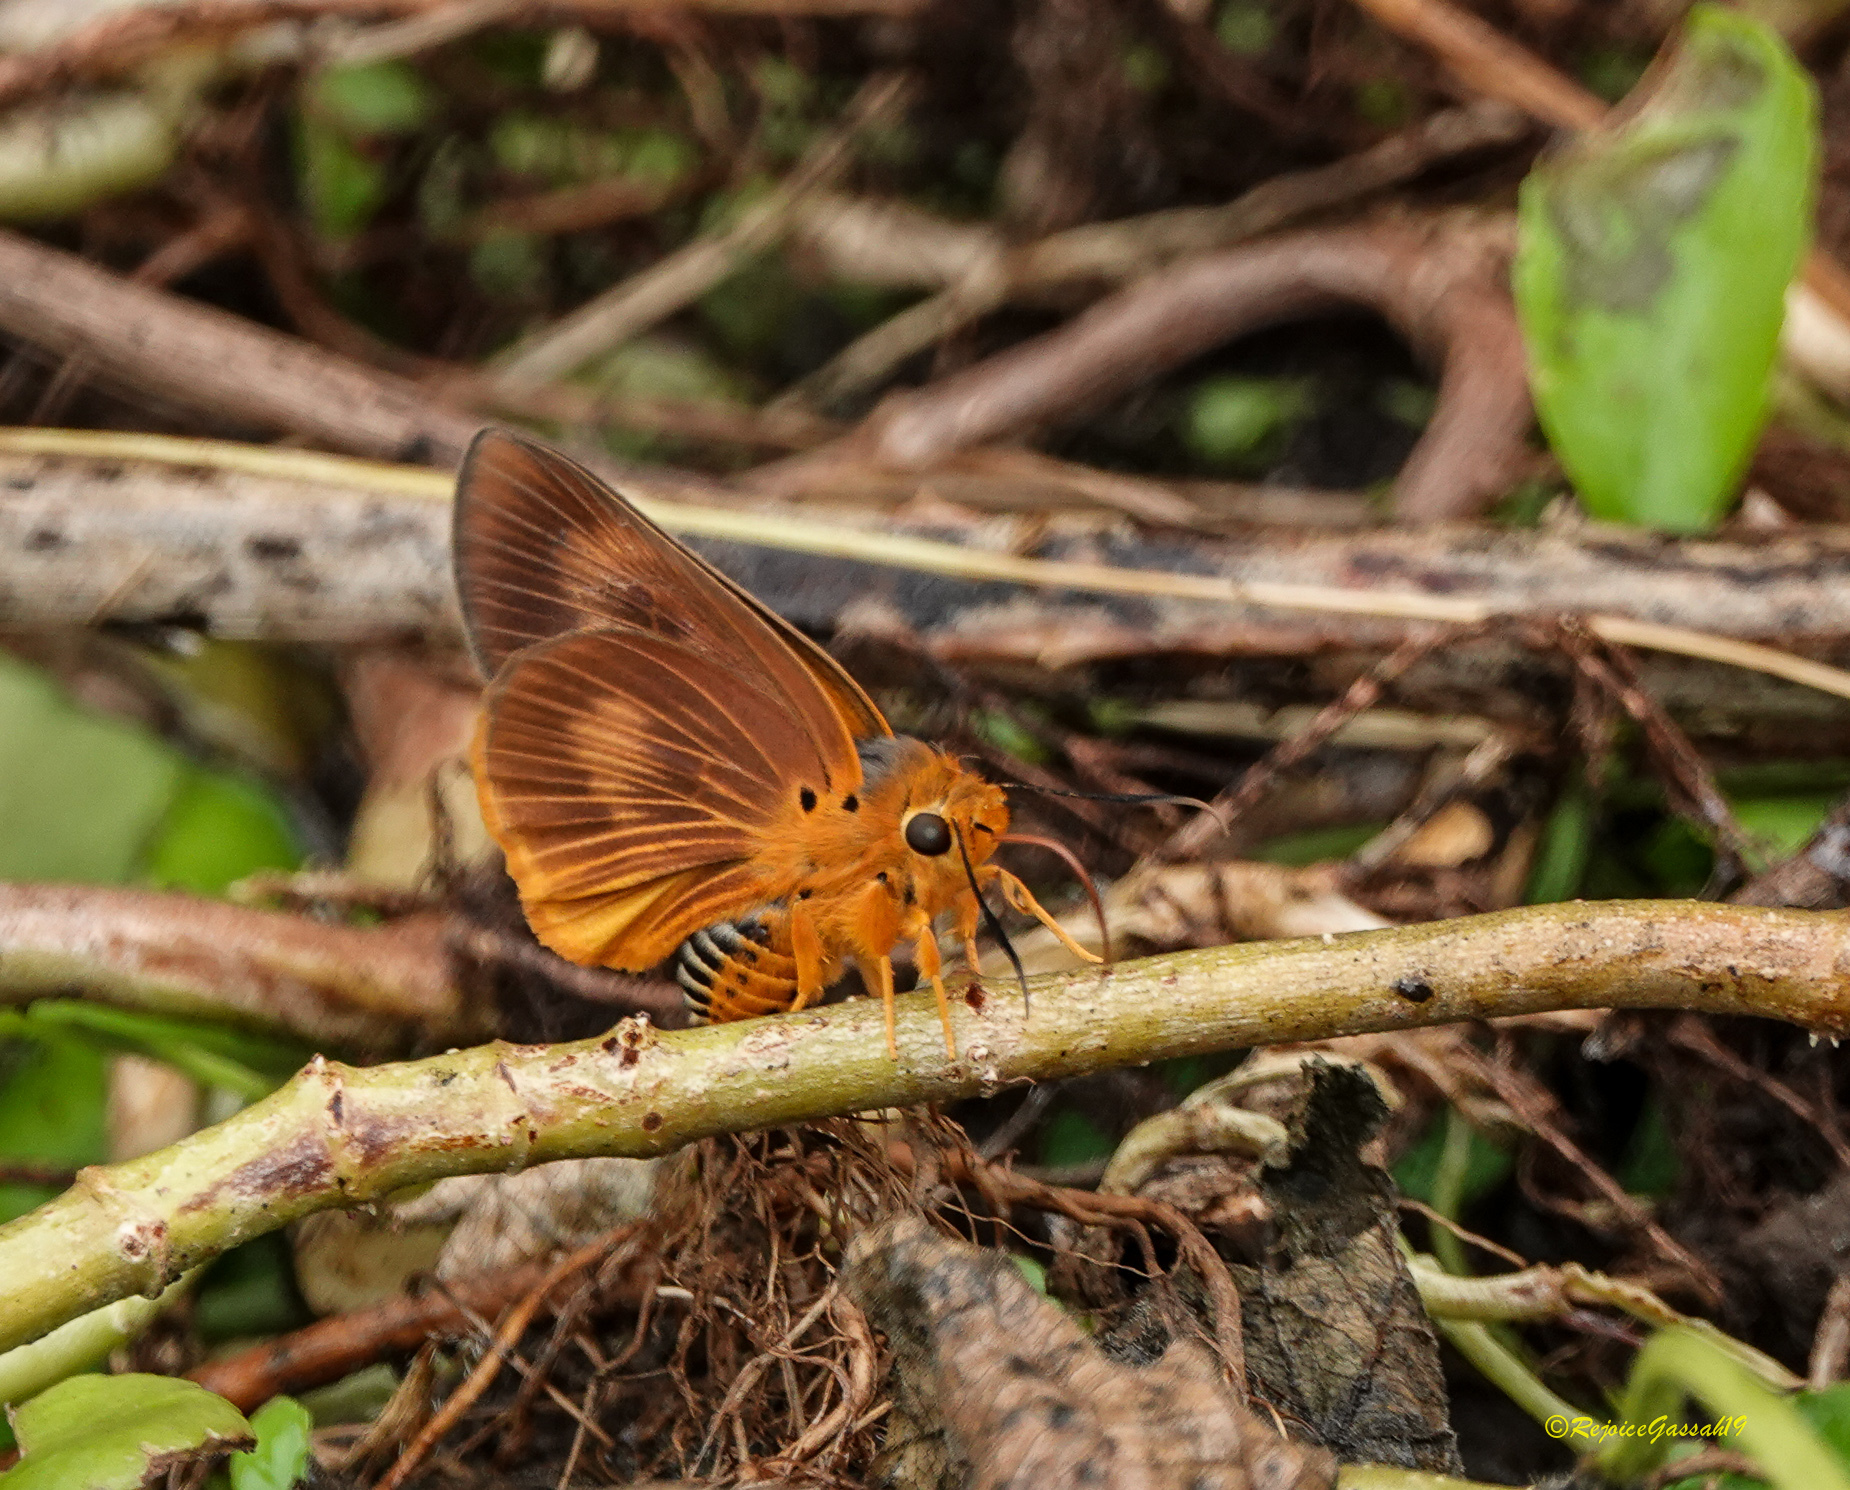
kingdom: Animalia
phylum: Arthropoda
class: Insecta
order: Lepidoptera
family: Hesperiidae
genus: Bibasis
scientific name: Bibasis harisa
